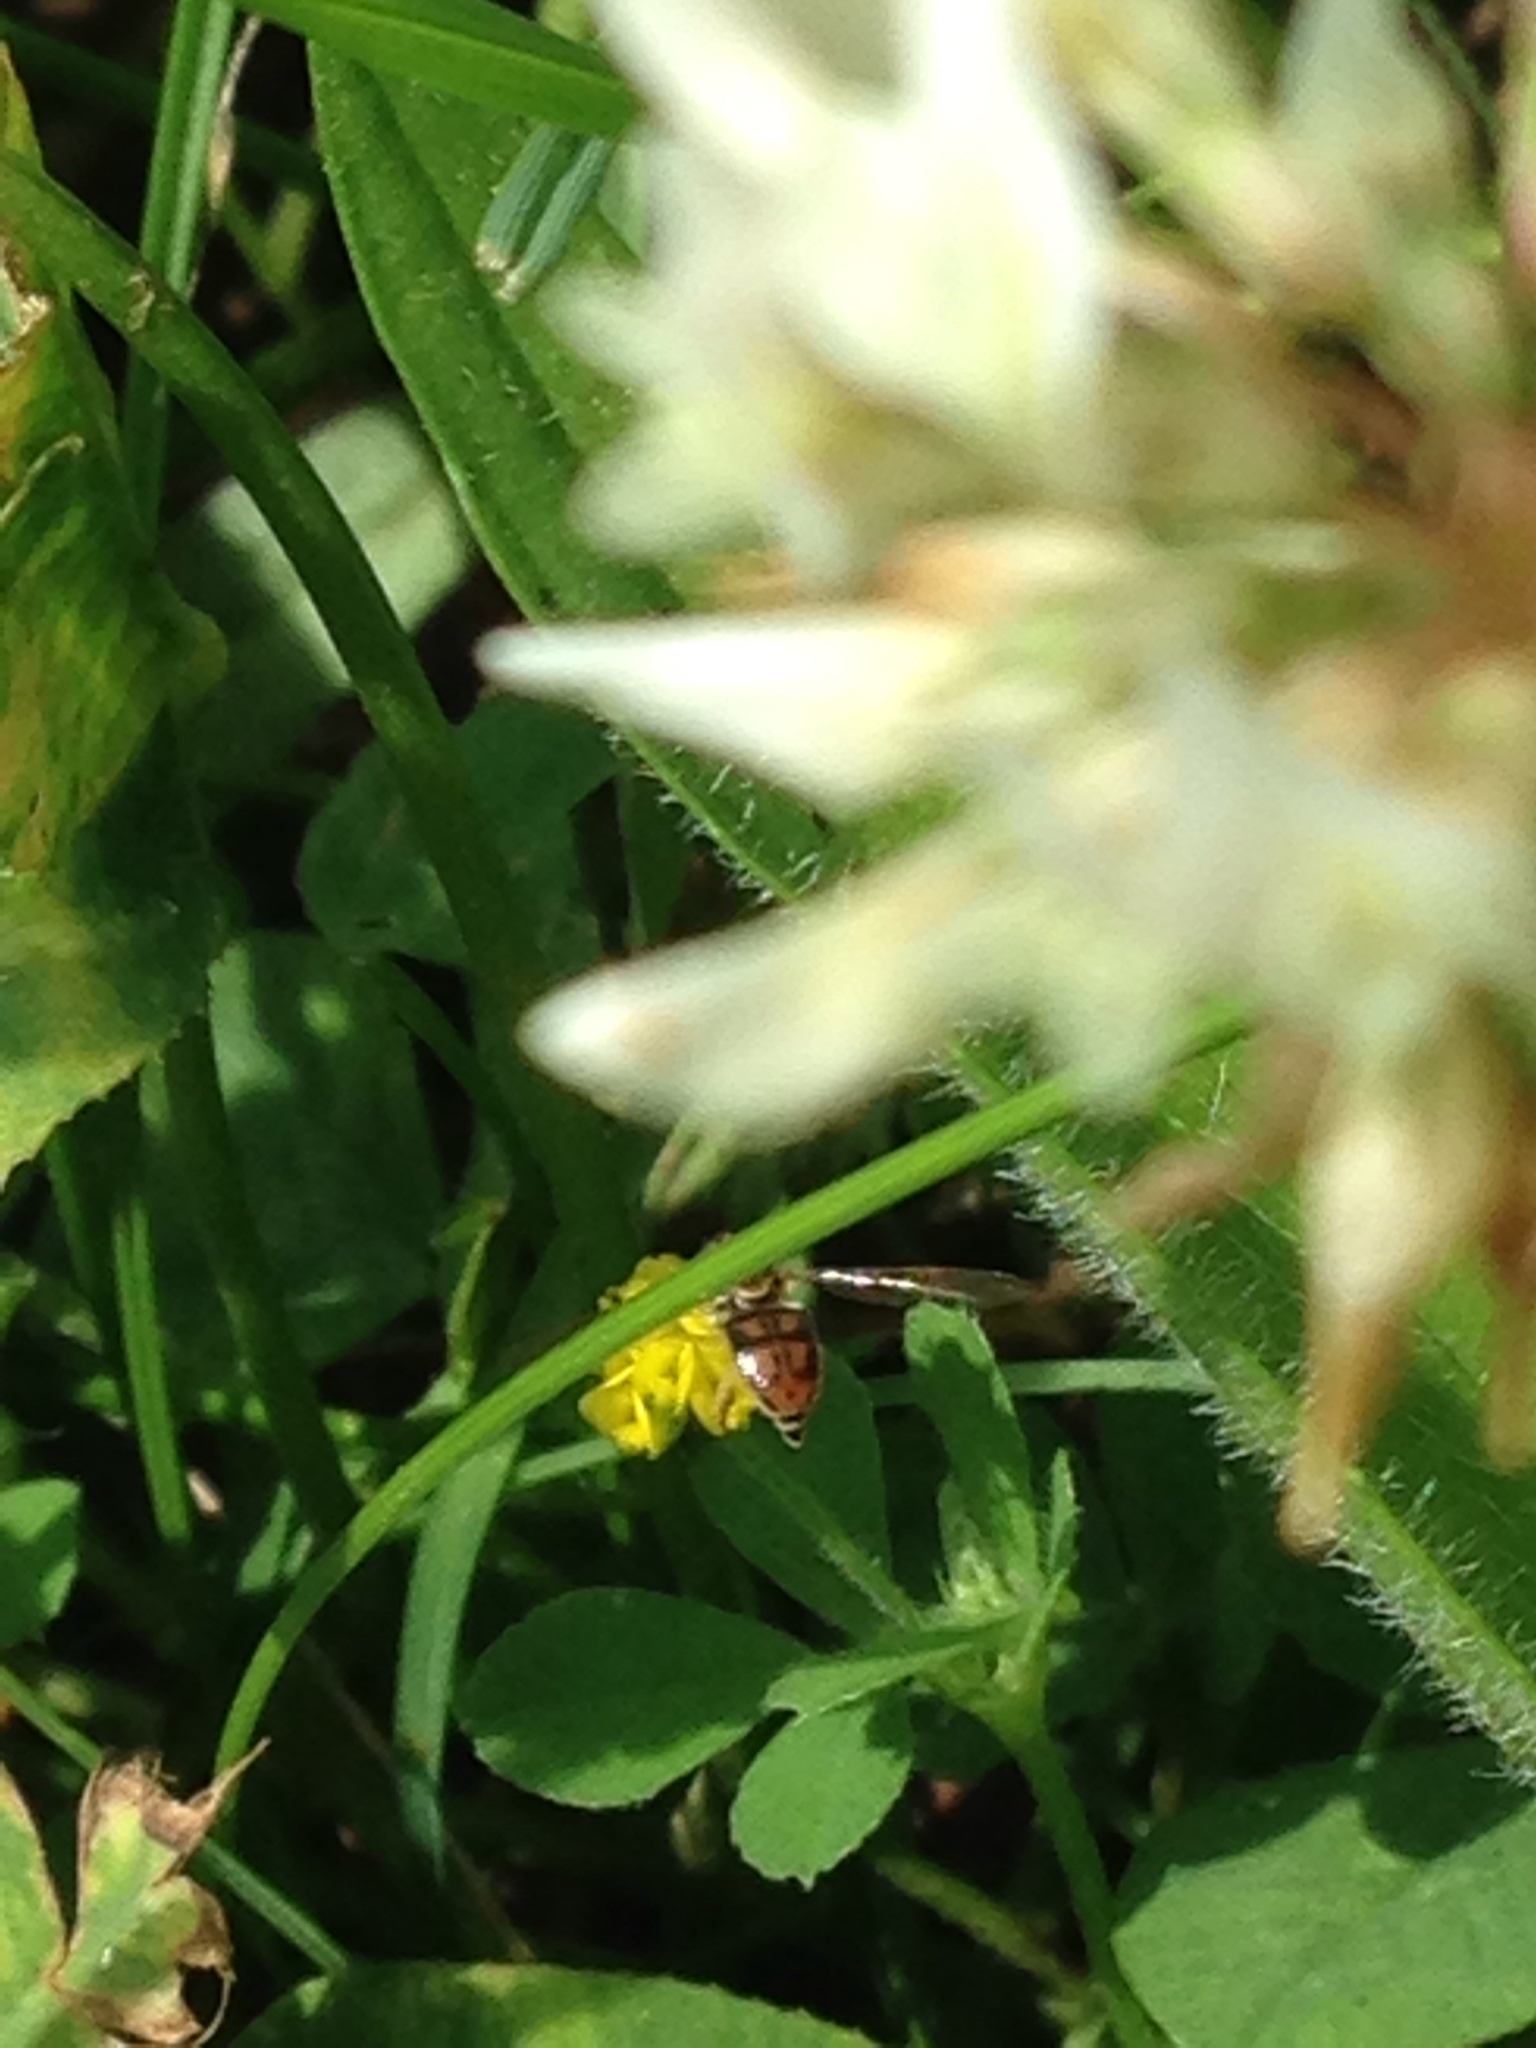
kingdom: Animalia
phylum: Arthropoda
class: Insecta
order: Diptera
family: Syrphidae
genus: Toxomerus
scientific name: Toxomerus marginatus
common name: Syrphid fly
